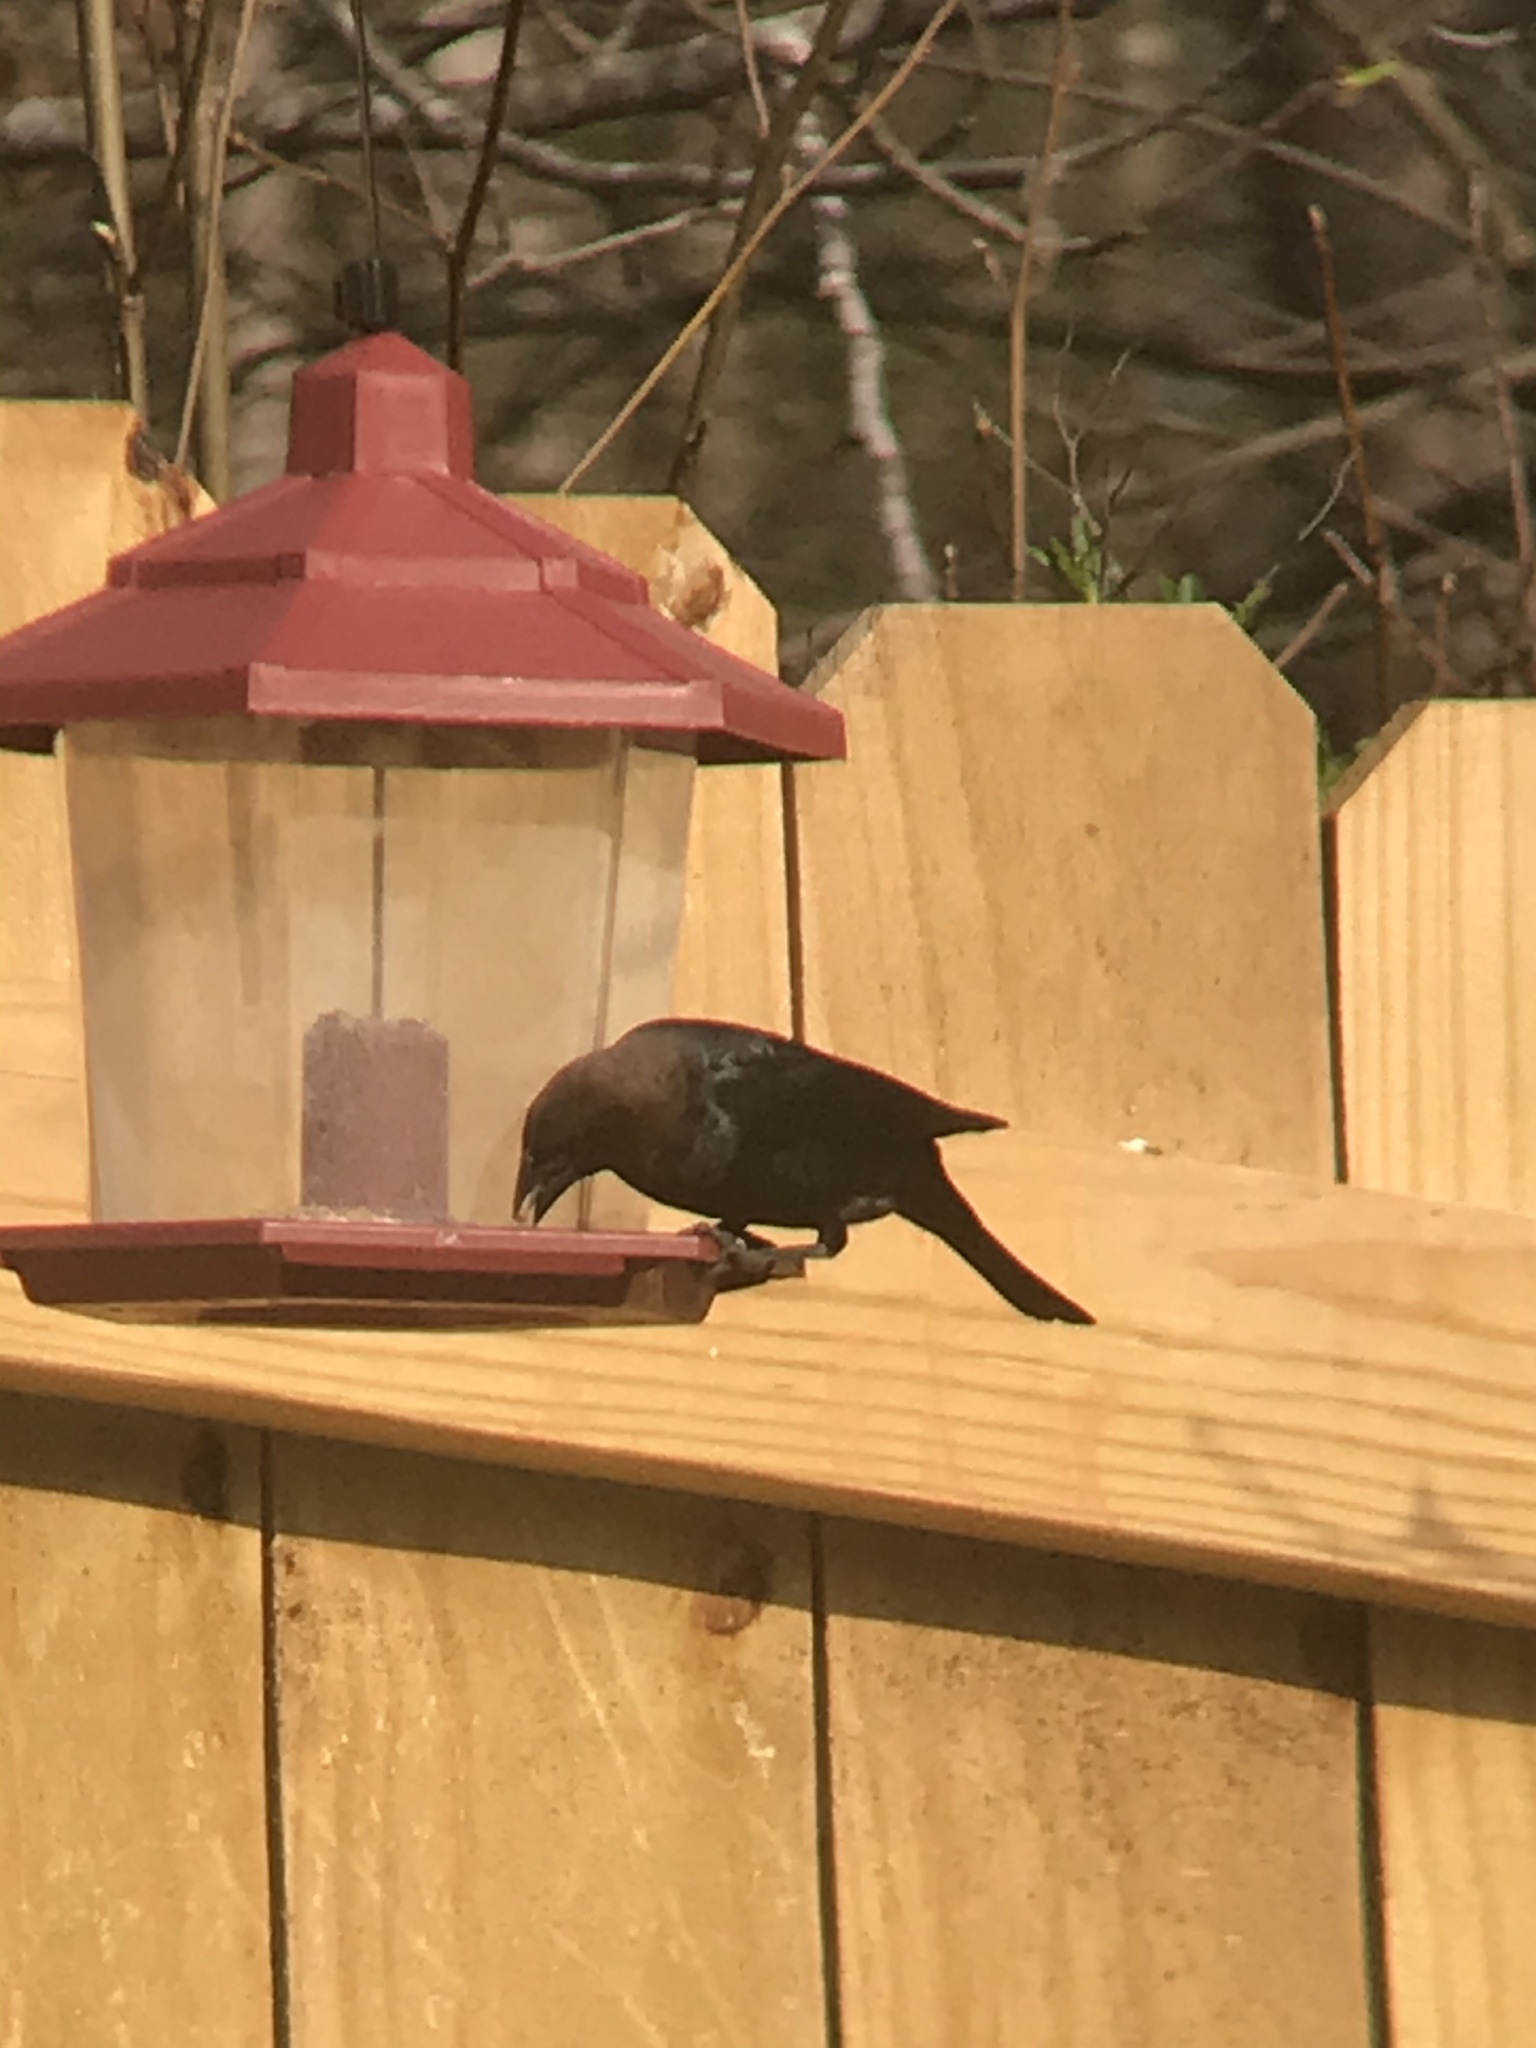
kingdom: Animalia
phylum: Chordata
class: Aves
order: Passeriformes
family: Icteridae
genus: Molothrus
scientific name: Molothrus ater
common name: Brown-headed cowbird
